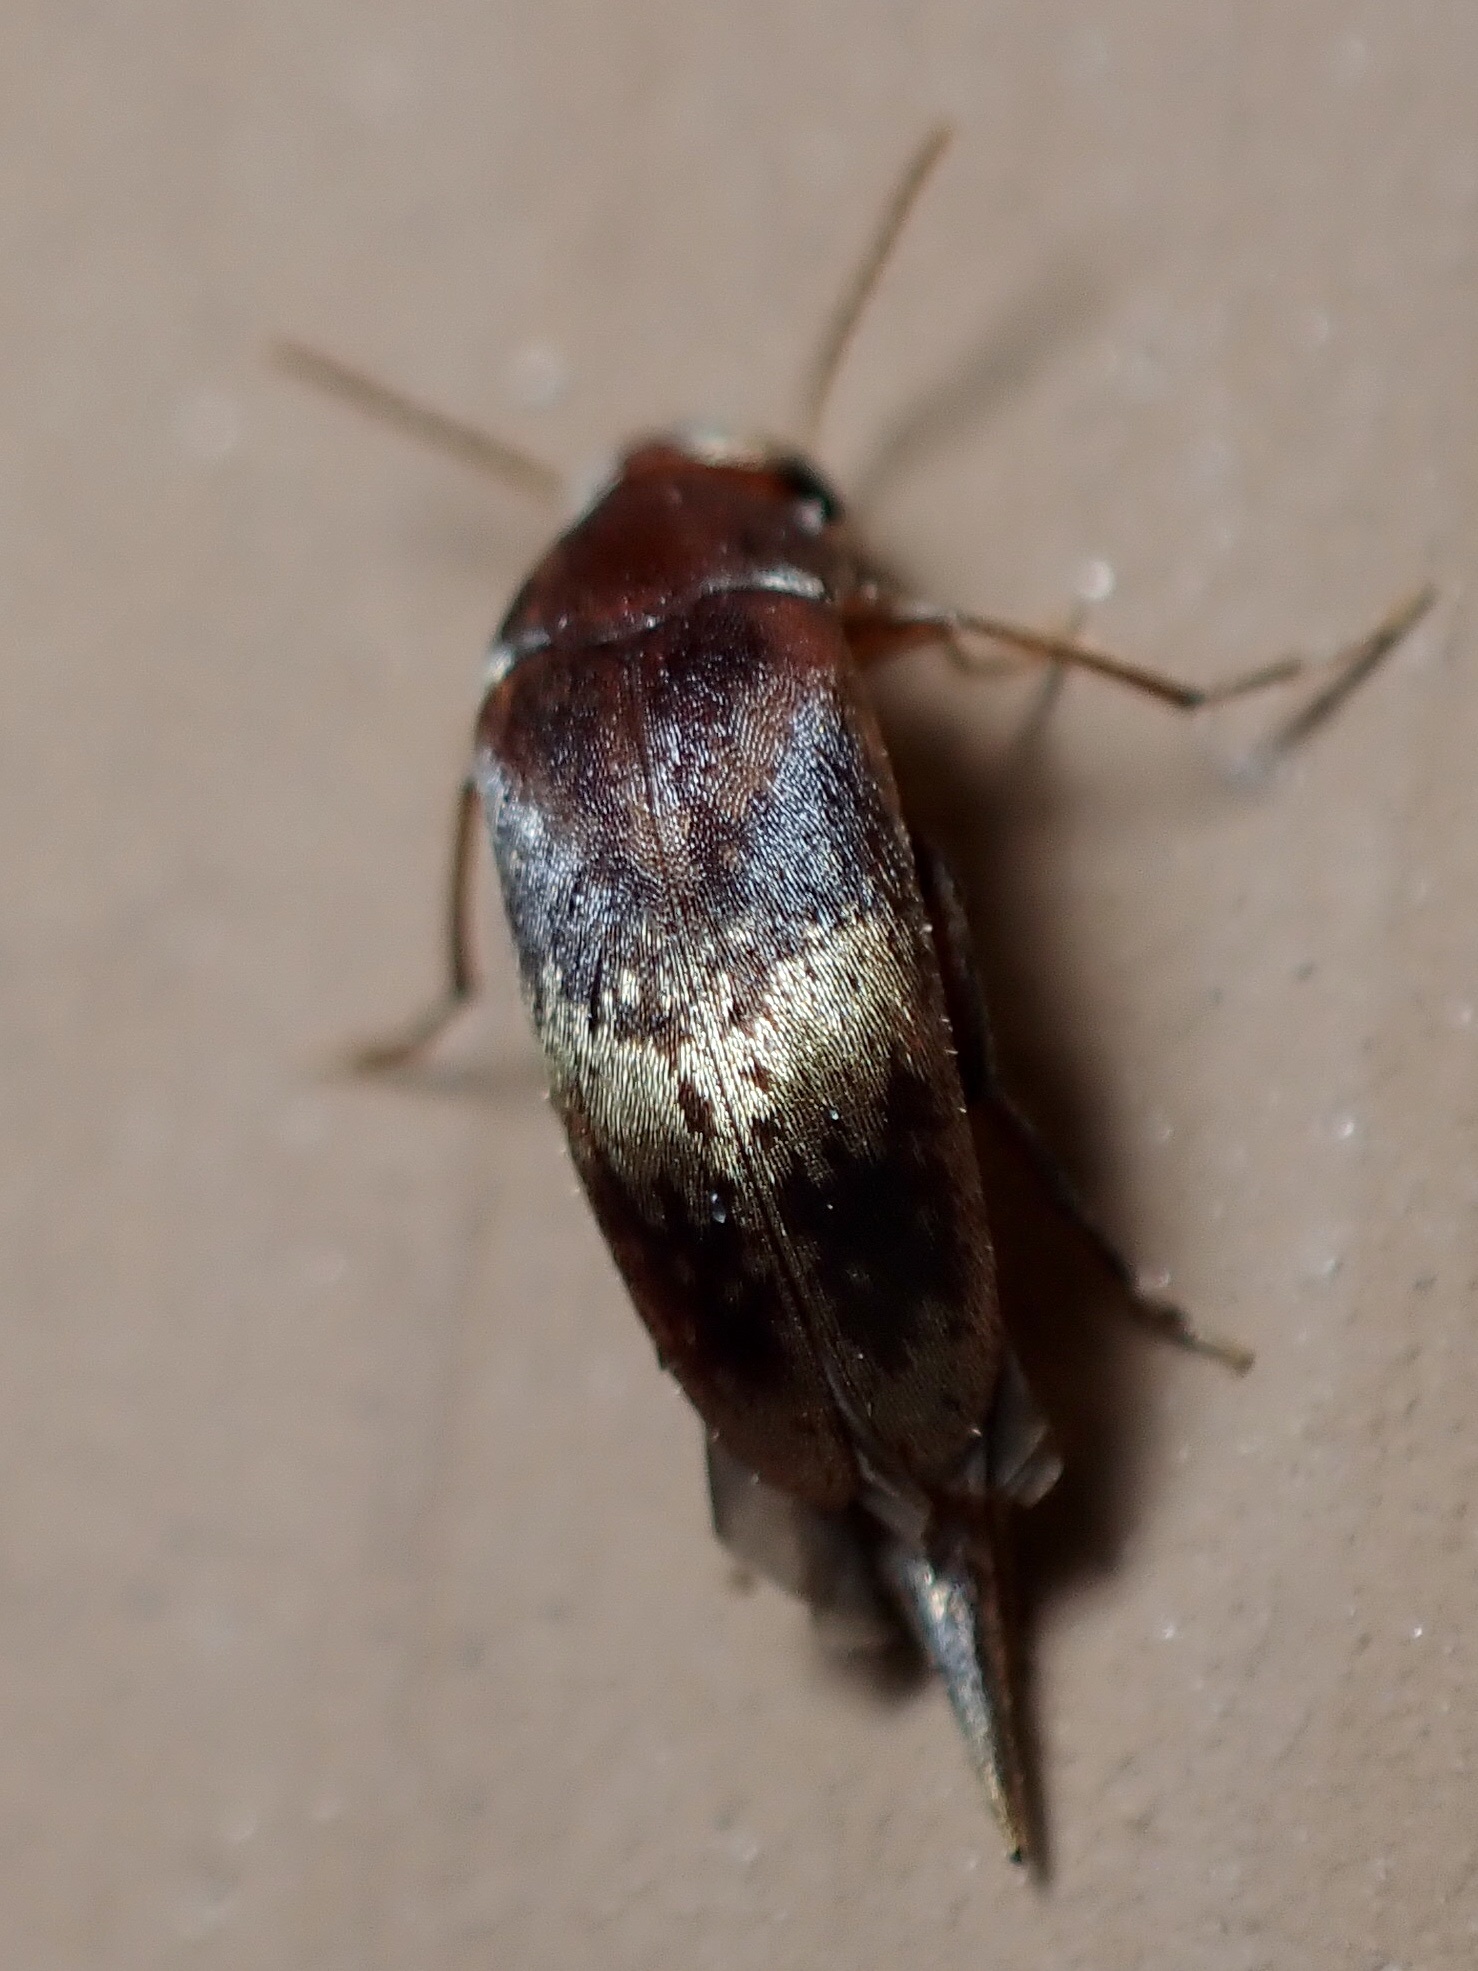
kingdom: Animalia
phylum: Arthropoda
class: Insecta
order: Coleoptera
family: Mordellidae
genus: Mordellistena
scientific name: Mordellistena masoni
